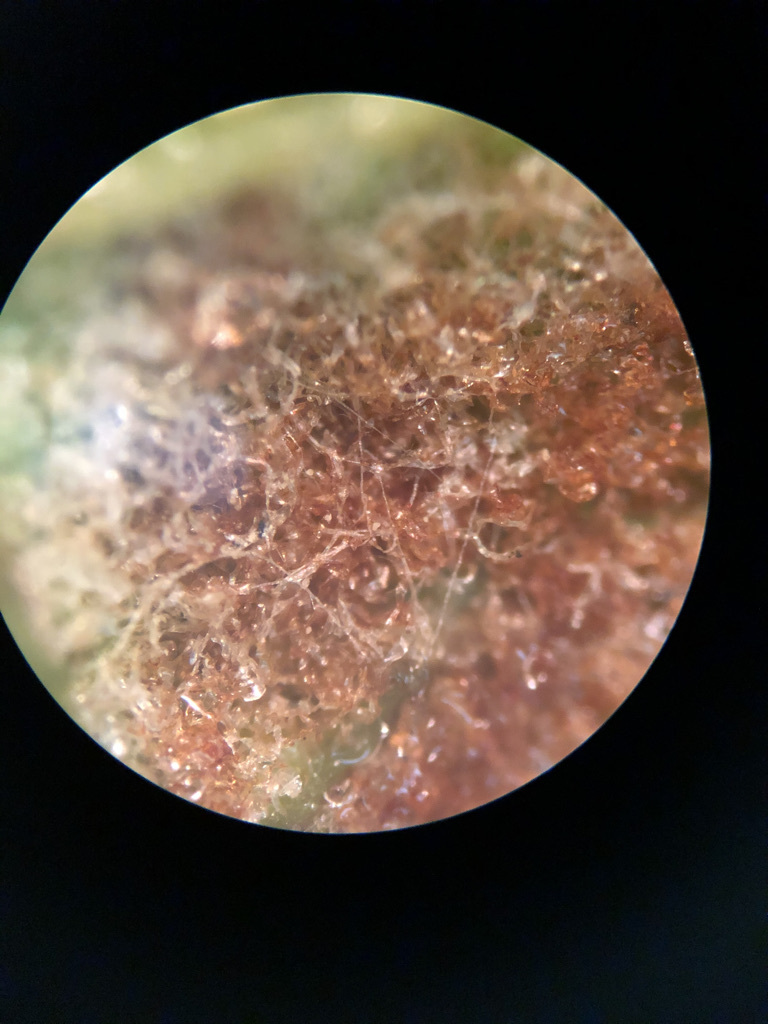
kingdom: Animalia
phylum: Arthropoda
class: Arachnida
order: Trombidiformes
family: Eriophyidae
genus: Colomerus
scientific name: Colomerus vitis
